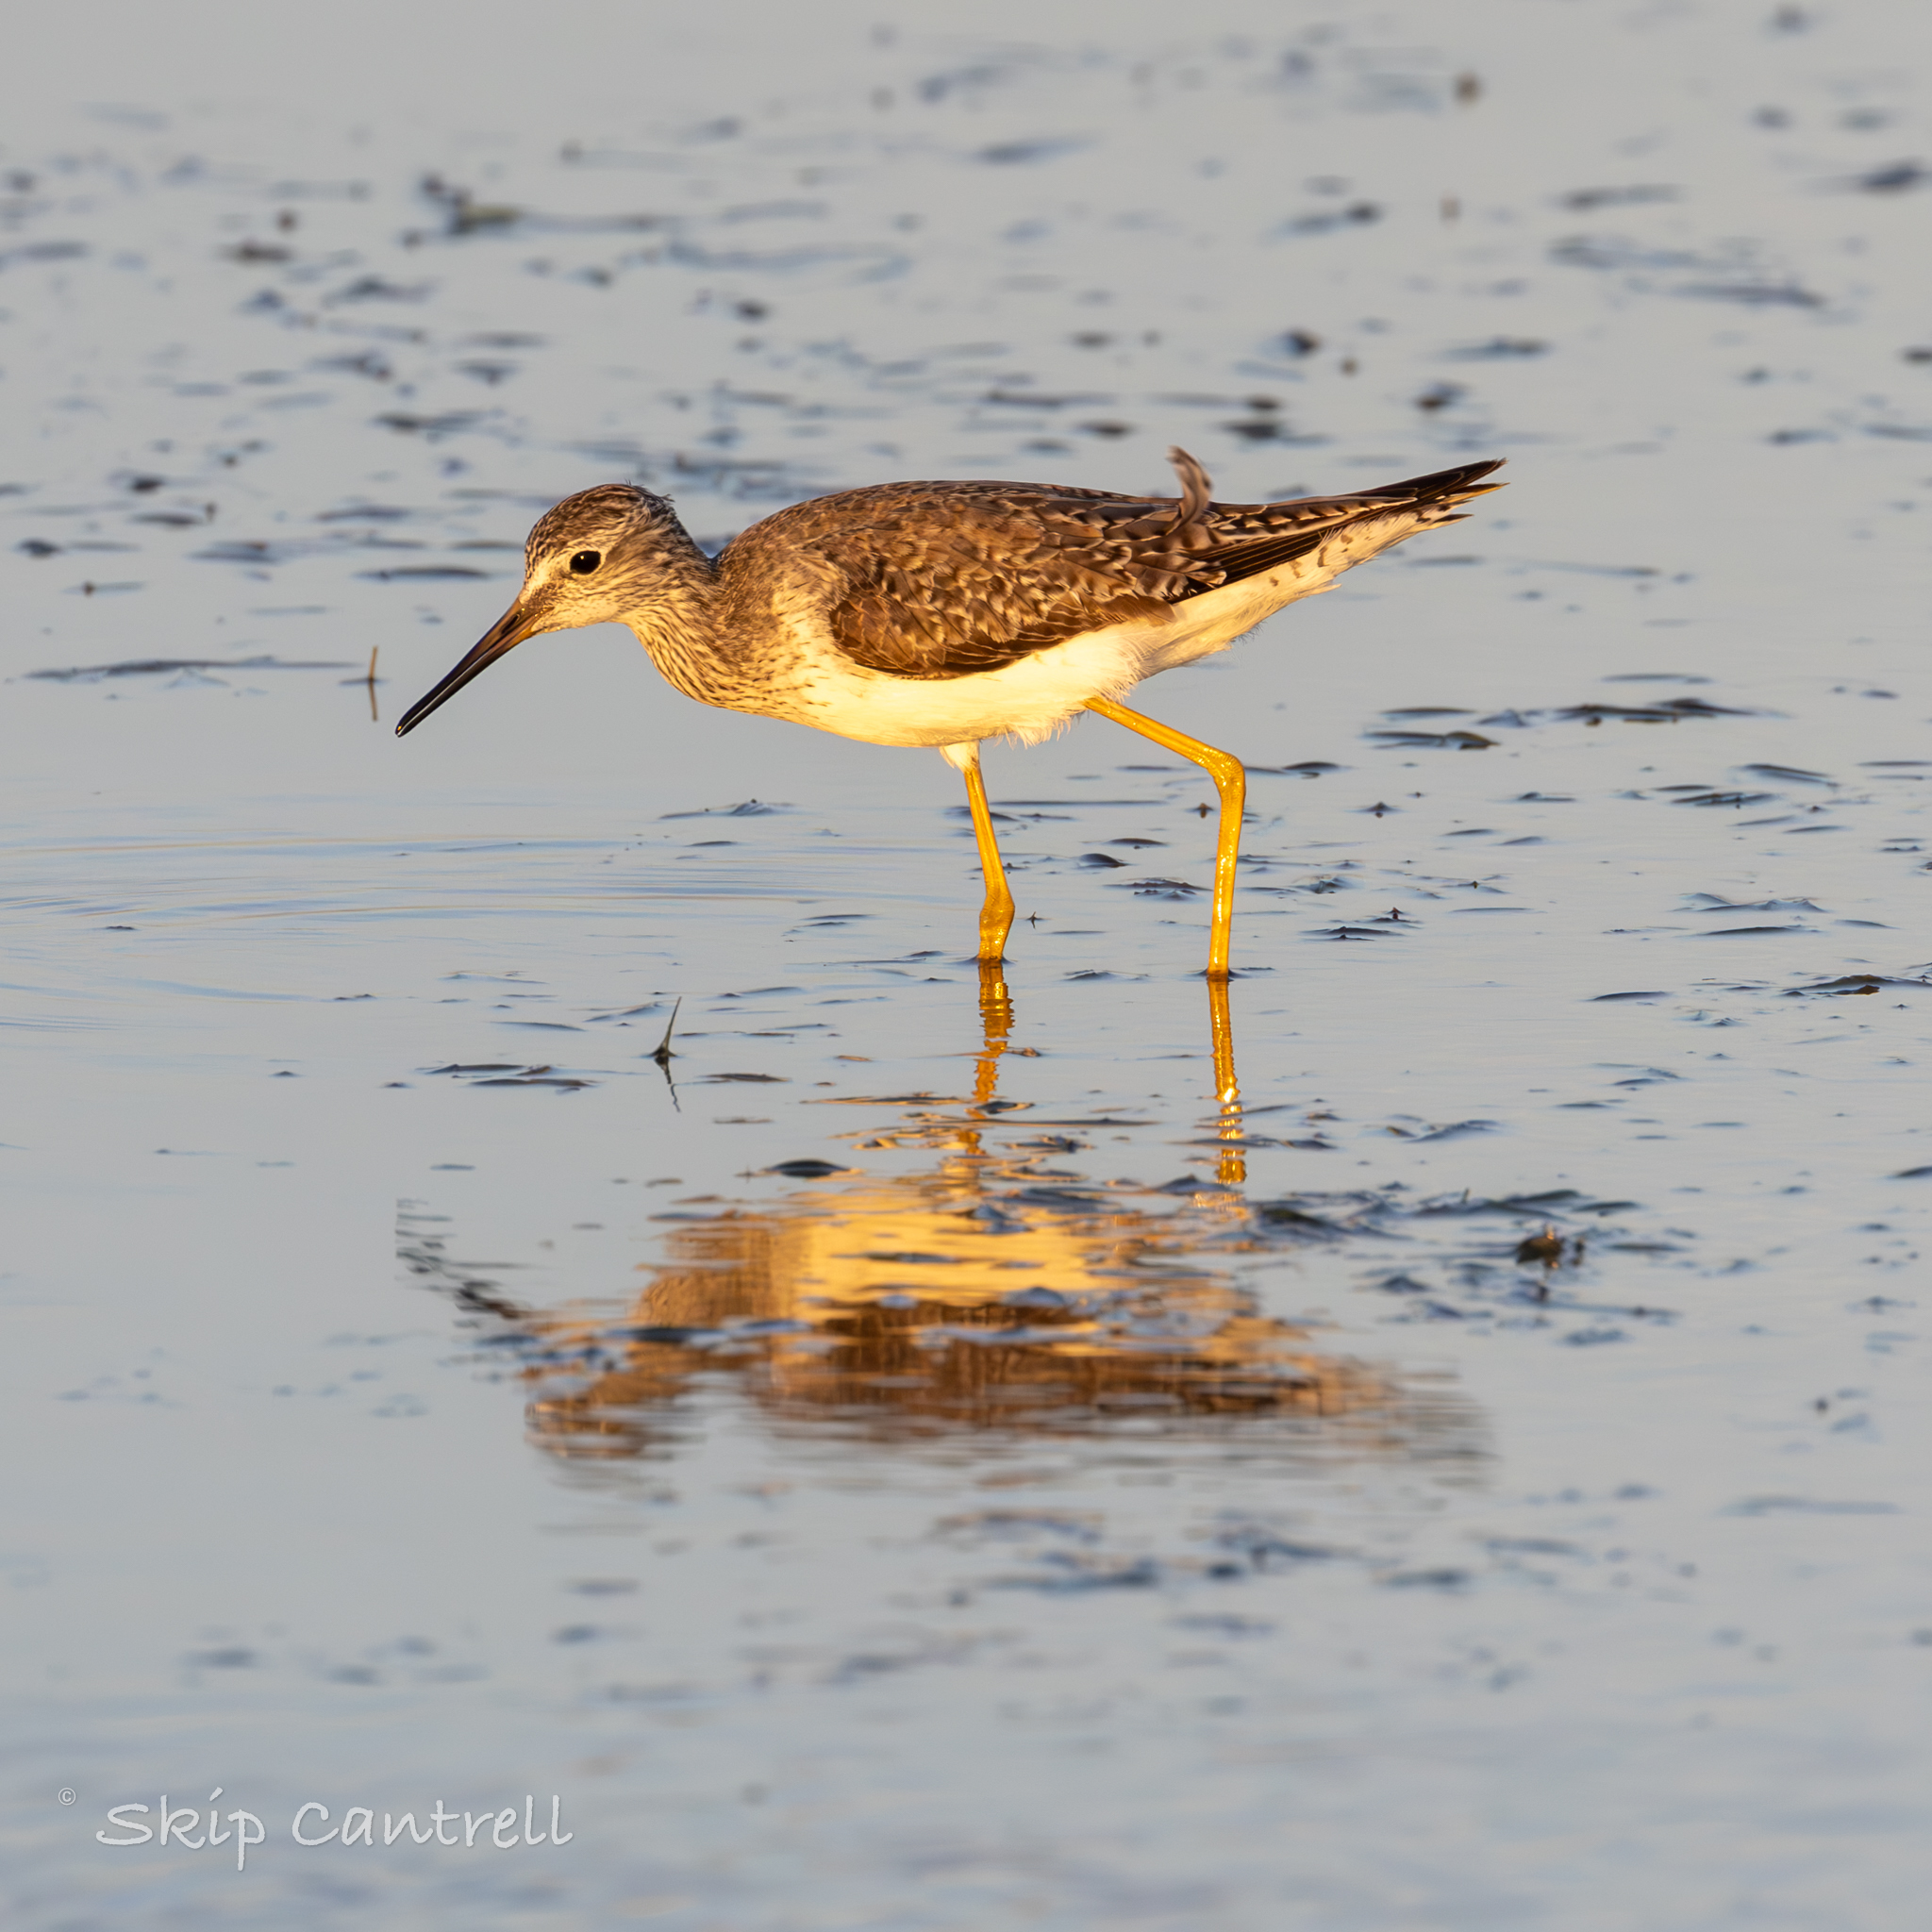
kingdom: Animalia
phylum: Chordata
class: Aves
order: Charadriiformes
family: Scolopacidae
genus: Tringa
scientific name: Tringa flavipes
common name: Lesser yellowlegs
